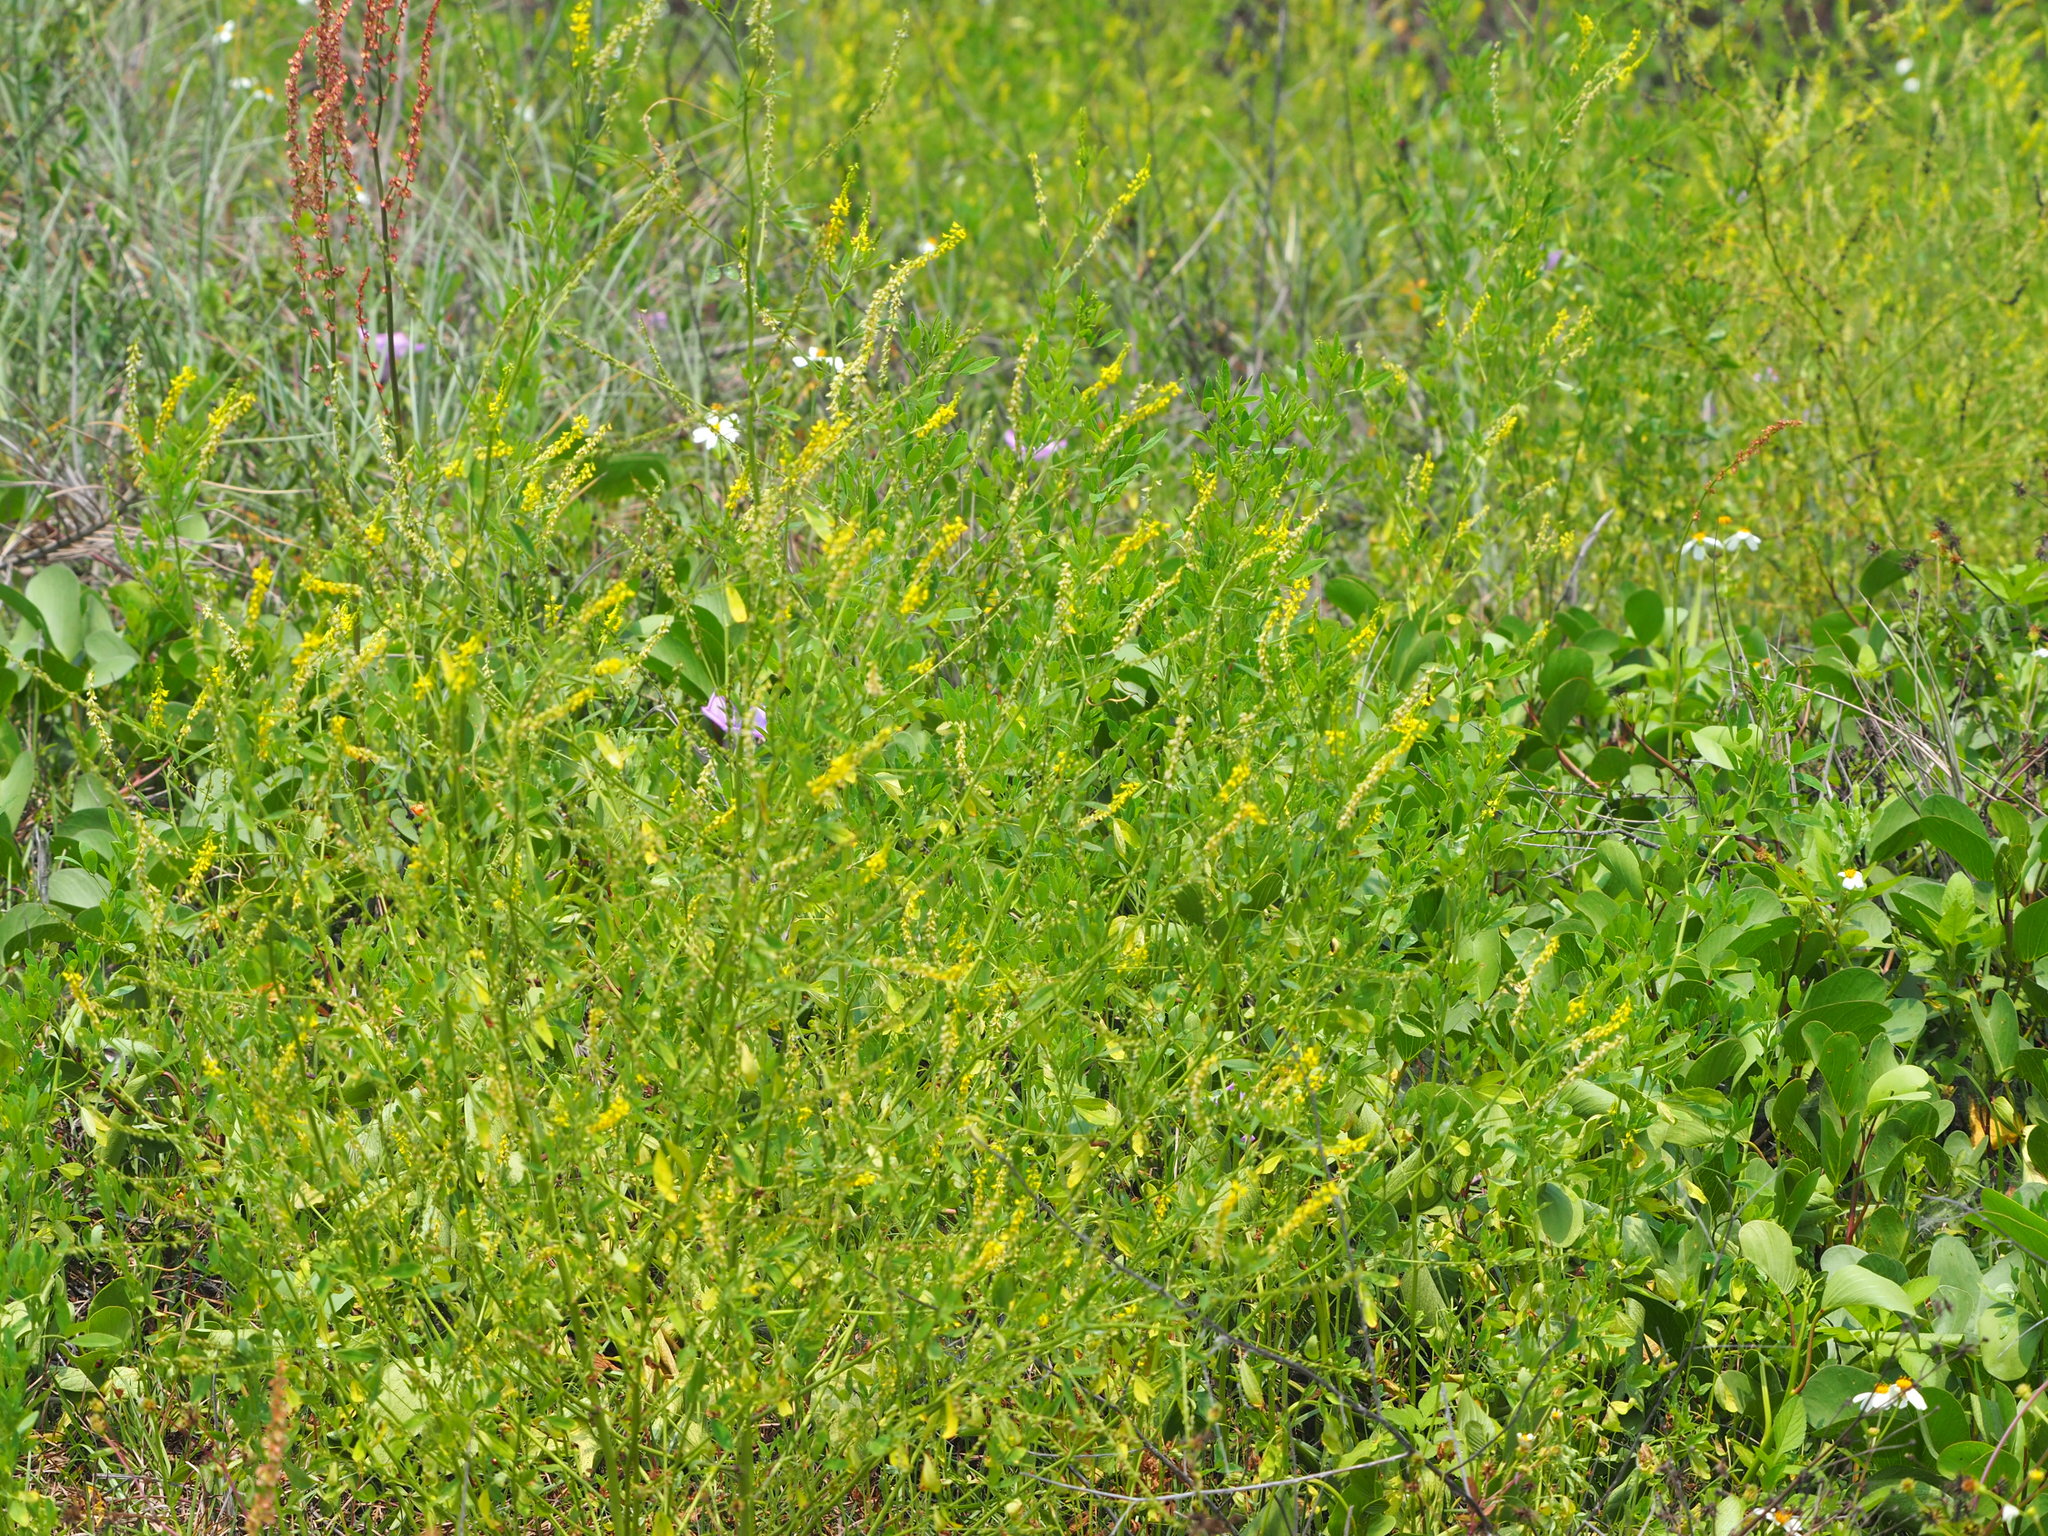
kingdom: Plantae
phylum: Tracheophyta
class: Magnoliopsida
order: Fabales
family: Fabaceae
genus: Melilotus
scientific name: Melilotus indicus
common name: Small melilot
